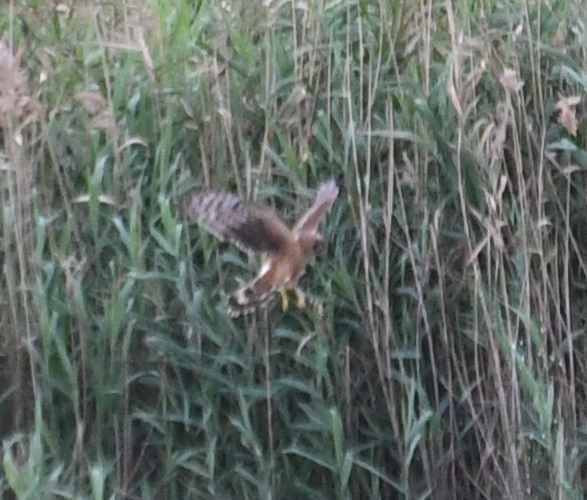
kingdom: Animalia
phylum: Chordata
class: Aves
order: Accipitriformes
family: Accipitridae
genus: Circus
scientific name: Circus cyaneus
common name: Hen harrier
